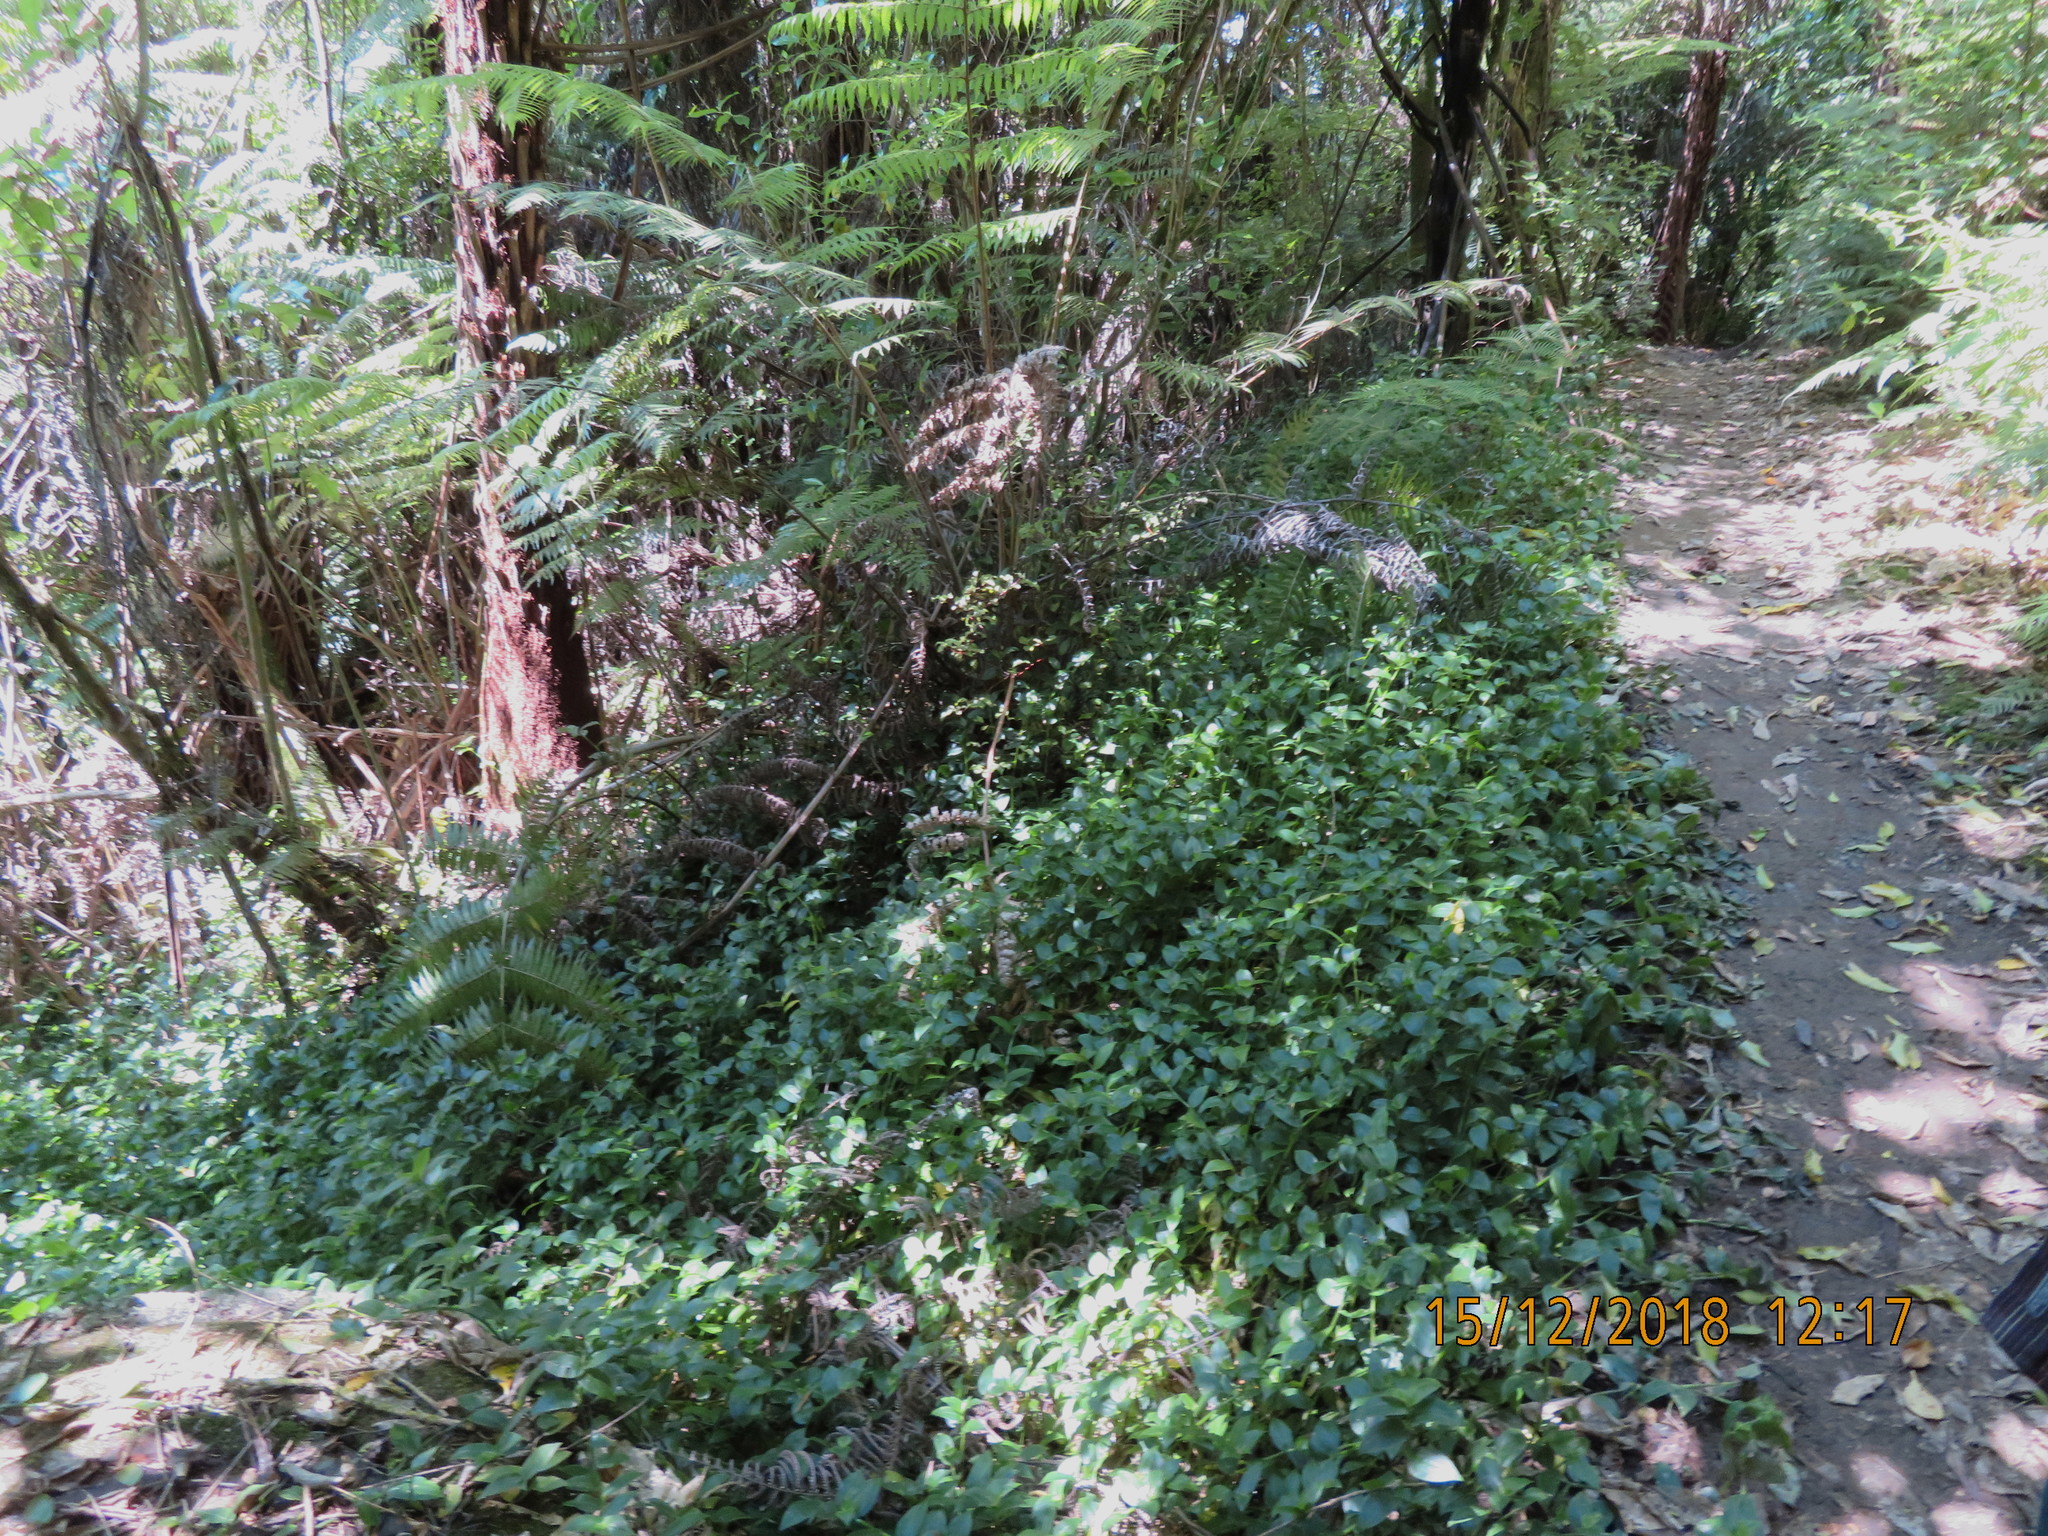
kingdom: Plantae
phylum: Tracheophyta
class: Liliopsida
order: Commelinales
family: Commelinaceae
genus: Tradescantia
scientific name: Tradescantia fluminensis
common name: Wandering-jew
